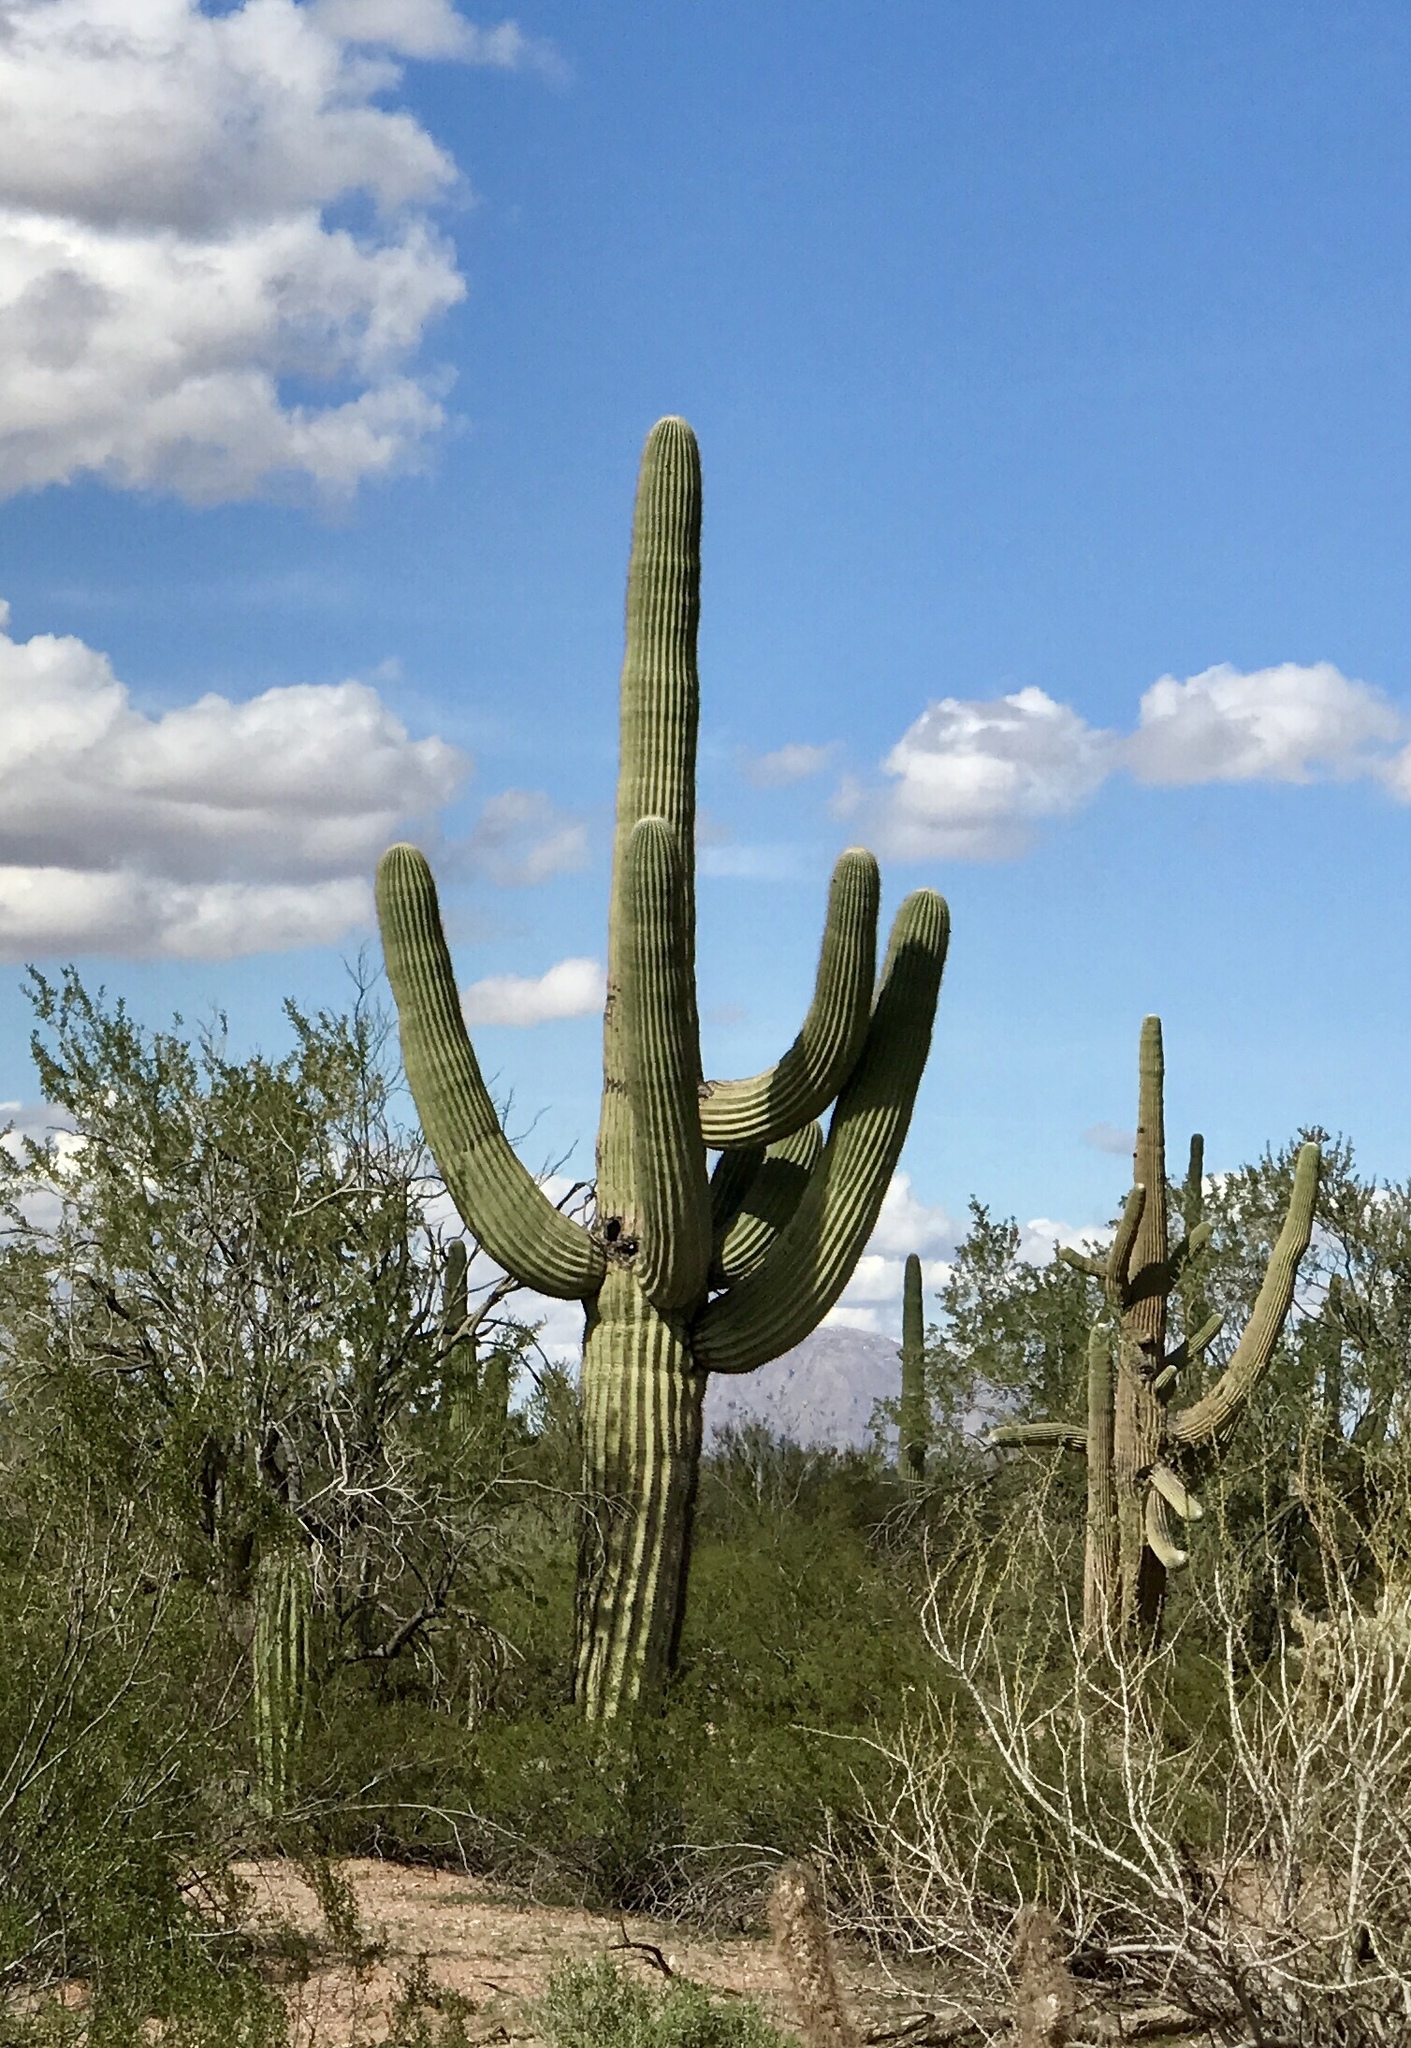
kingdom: Plantae
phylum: Tracheophyta
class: Magnoliopsida
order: Caryophyllales
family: Cactaceae
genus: Carnegiea
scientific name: Carnegiea gigantea
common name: Saguaro
